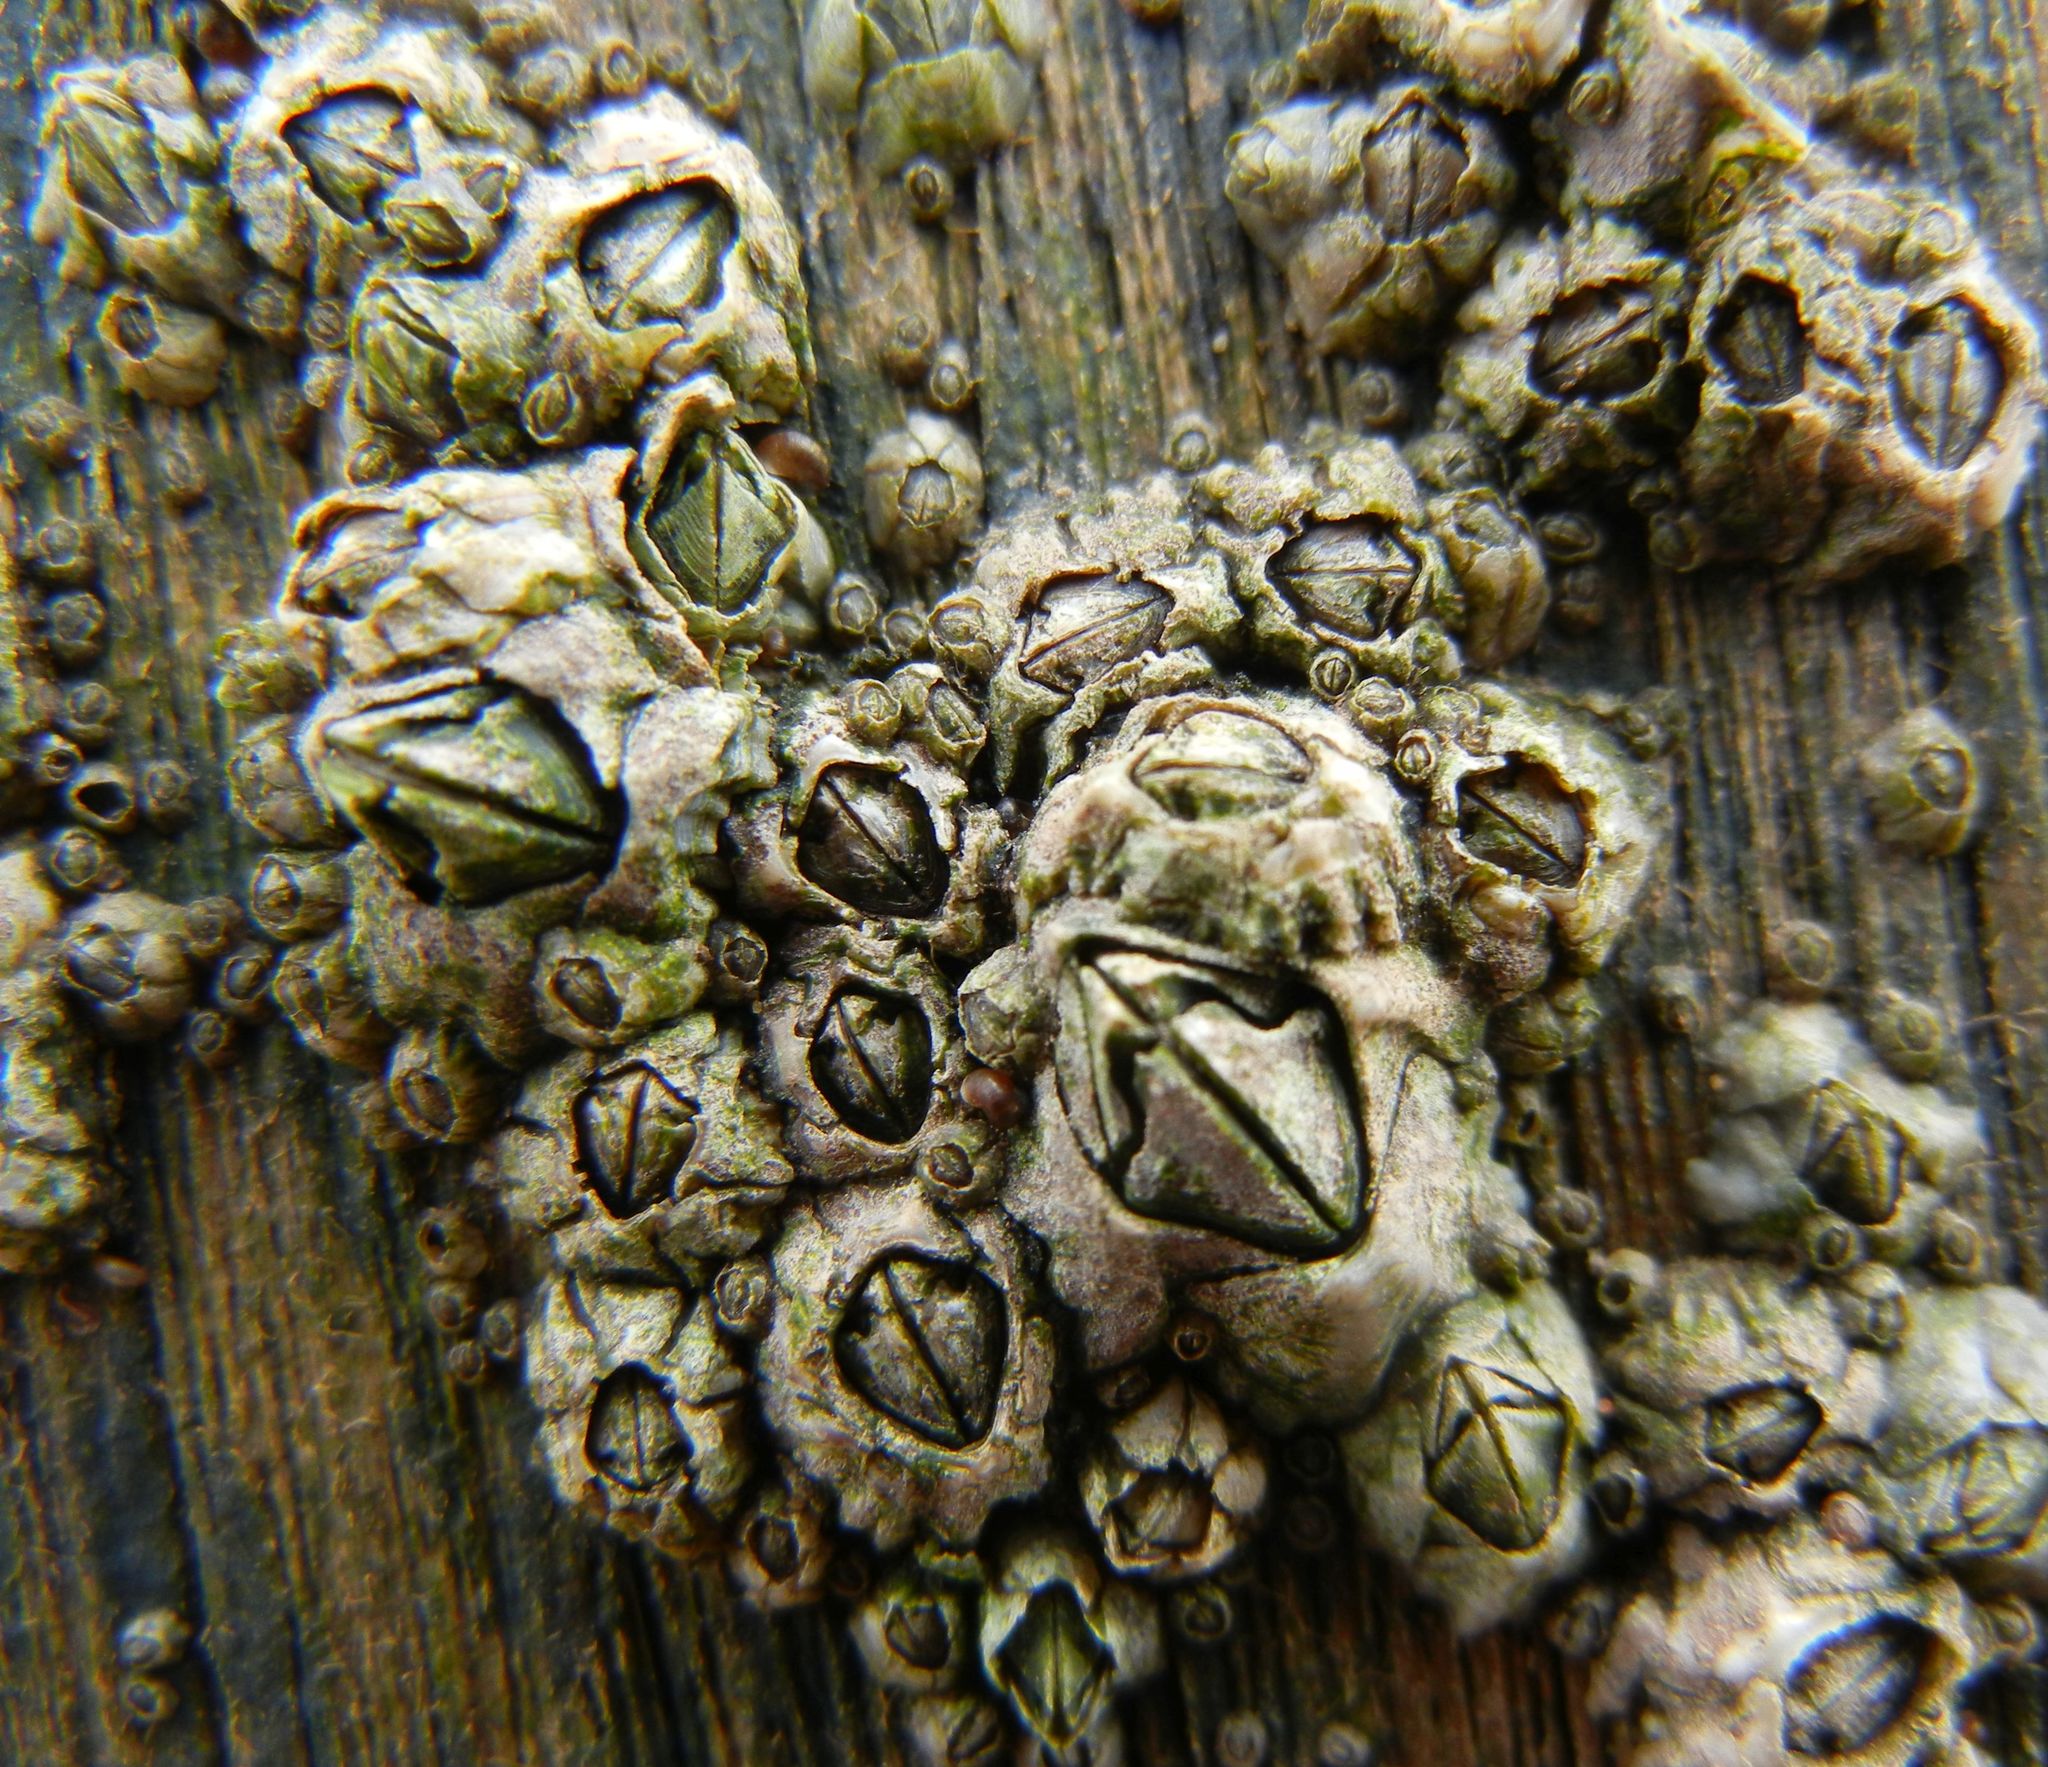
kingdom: Animalia
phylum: Arthropoda
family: Elminiidae
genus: Austrominius
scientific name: Austrominius modestus
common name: Australasian barnacle
